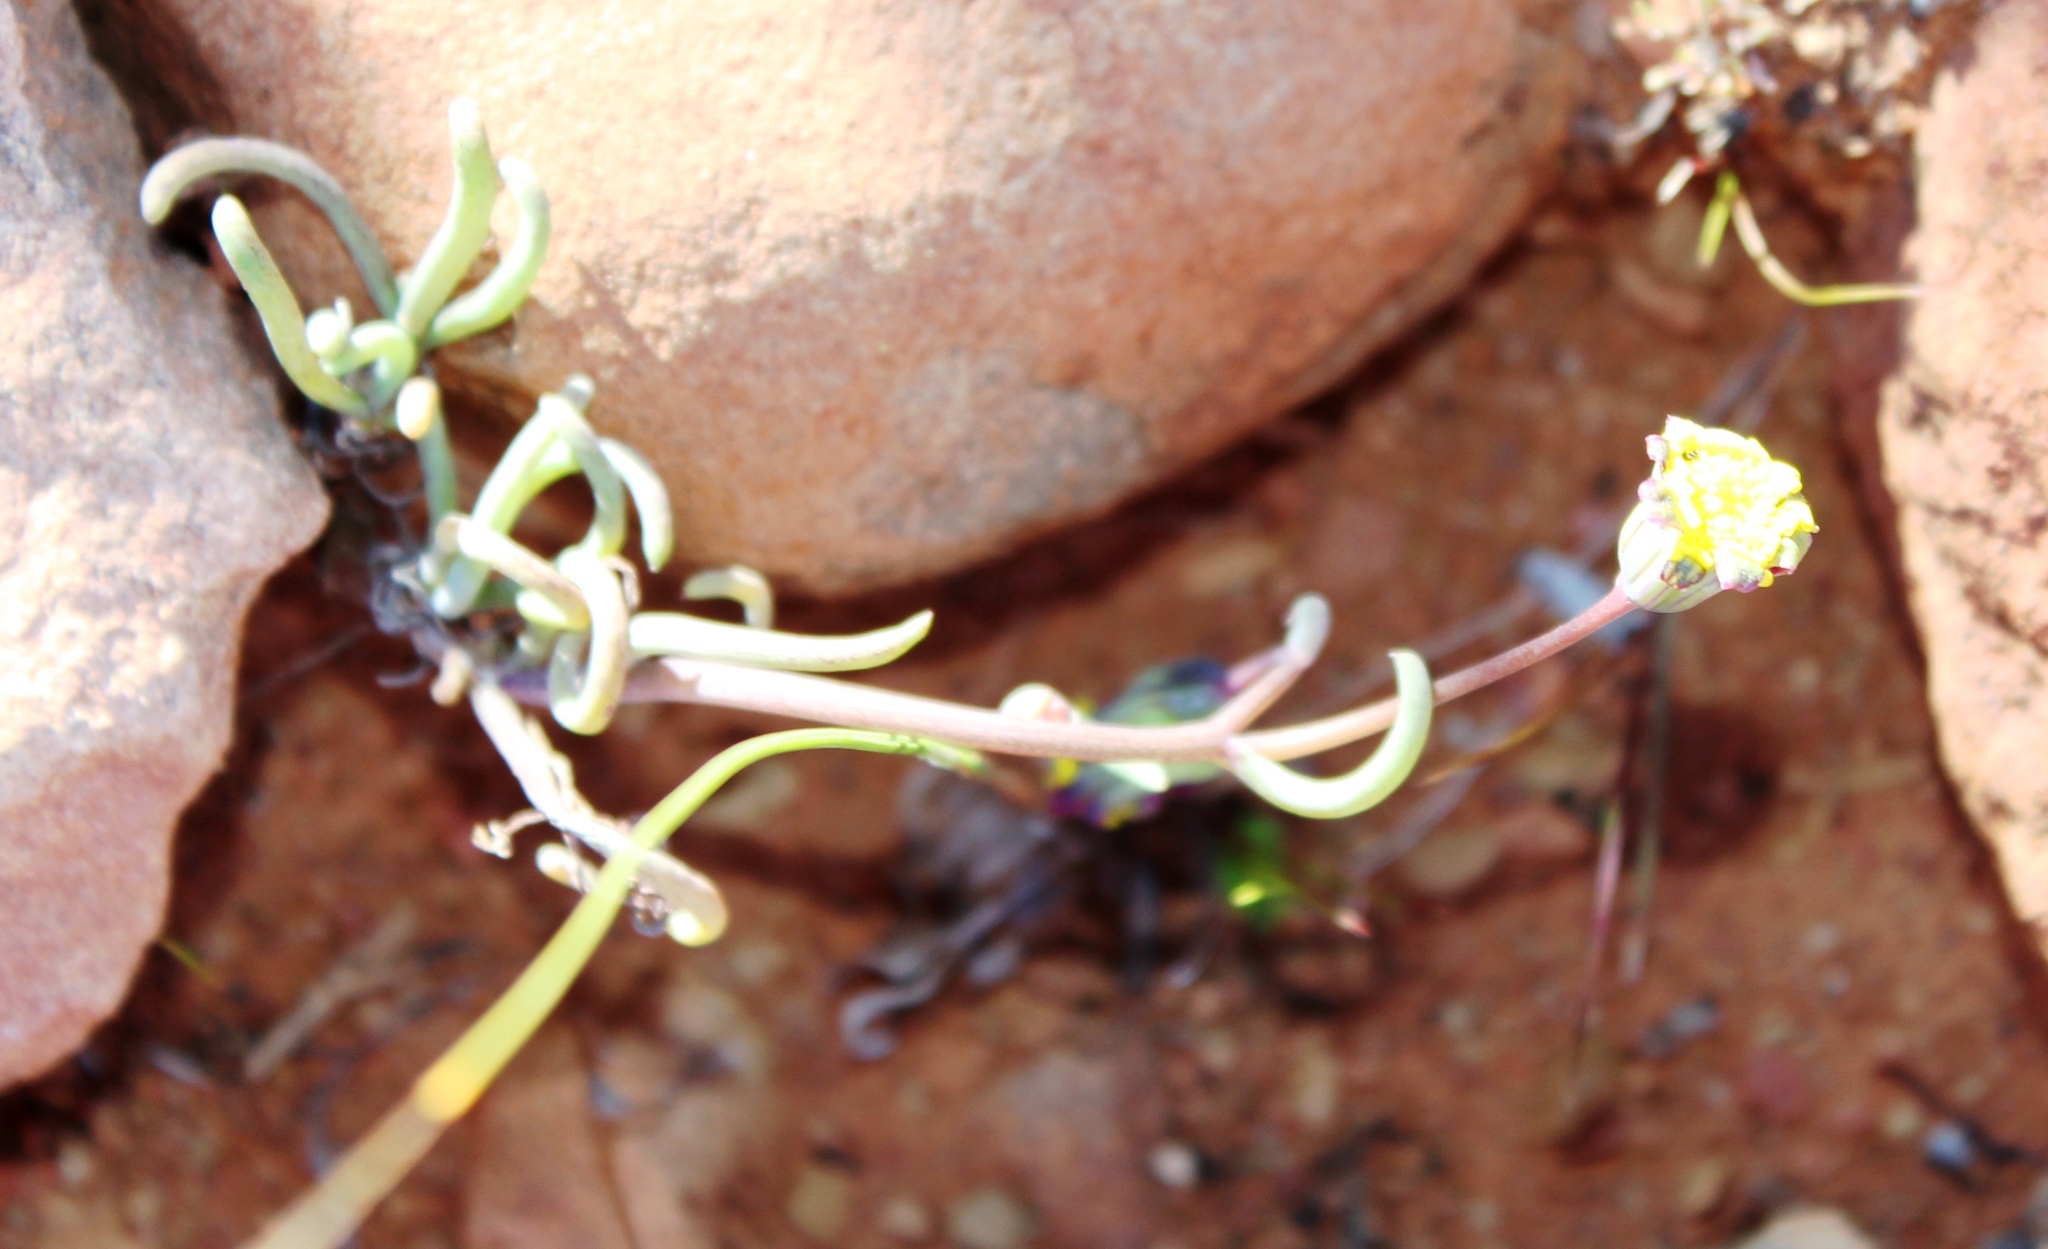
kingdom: Plantae
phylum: Tracheophyta
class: Magnoliopsida
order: Asterales
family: Asteraceae
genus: Crassothonna
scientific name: Crassothonna protecta
